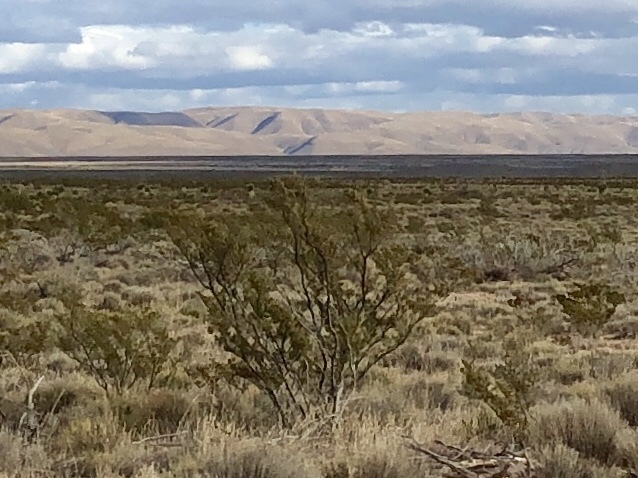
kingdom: Plantae
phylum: Tracheophyta
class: Magnoliopsida
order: Zygophyllales
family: Zygophyllaceae
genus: Larrea
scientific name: Larrea tridentata
